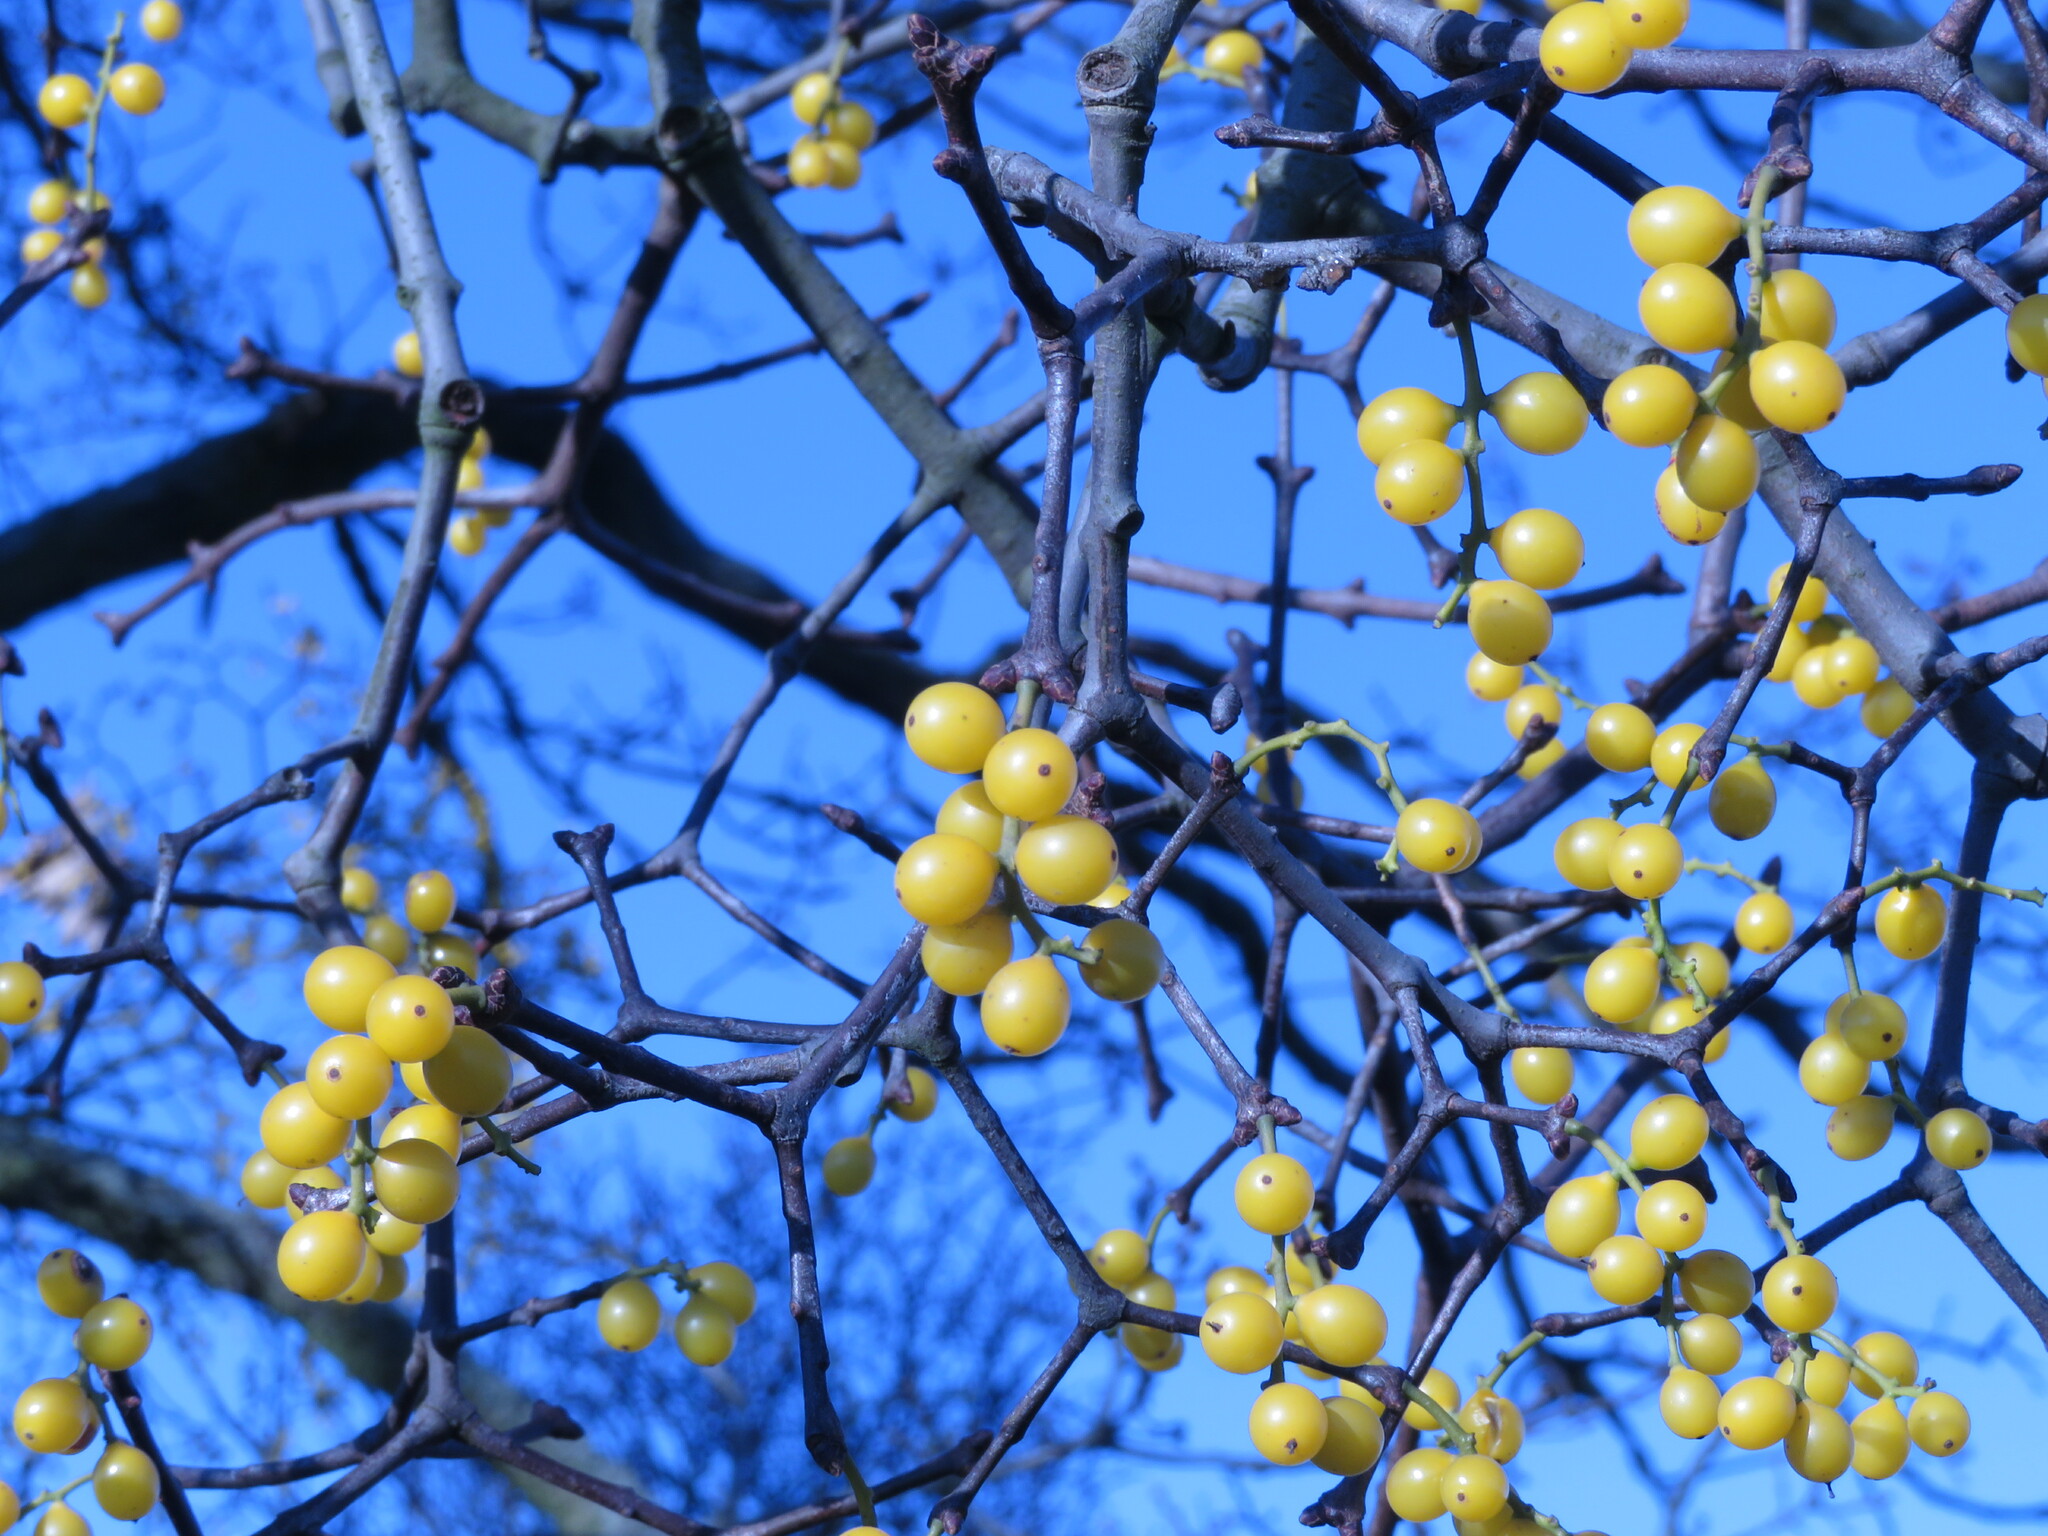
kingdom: Plantae
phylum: Tracheophyta
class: Magnoliopsida
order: Santalales
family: Loranthaceae
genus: Loranthus
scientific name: Loranthus europaeus
